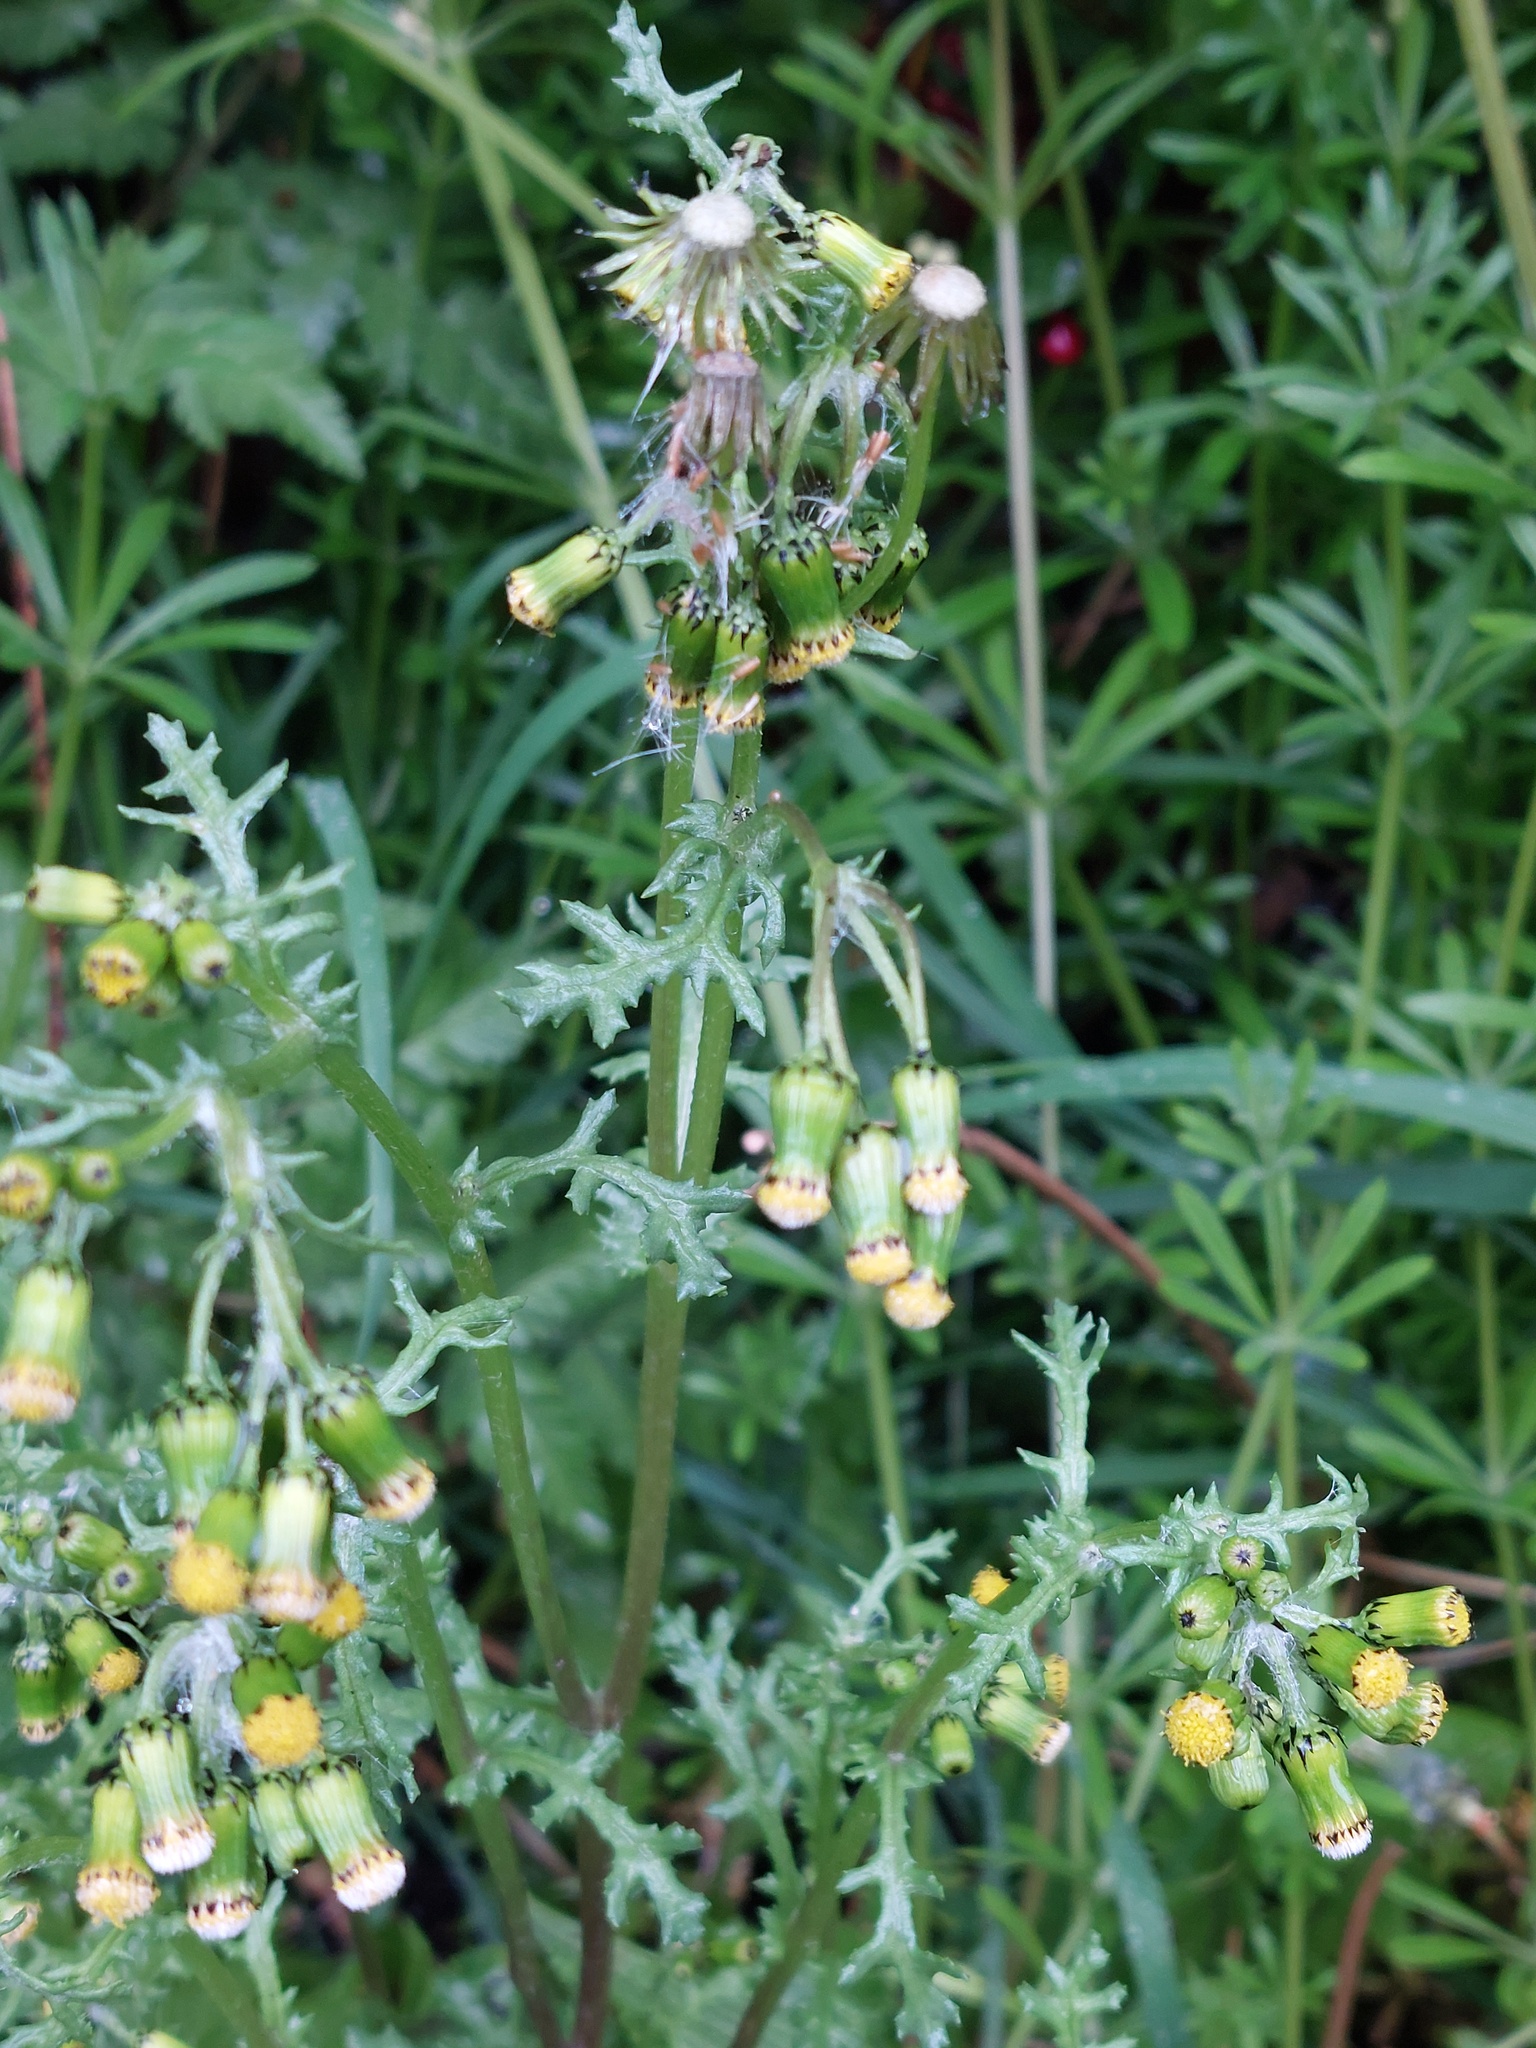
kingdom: Plantae
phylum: Tracheophyta
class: Magnoliopsida
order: Asterales
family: Asteraceae
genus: Senecio
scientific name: Senecio vulgaris
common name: Old-man-in-the-spring
